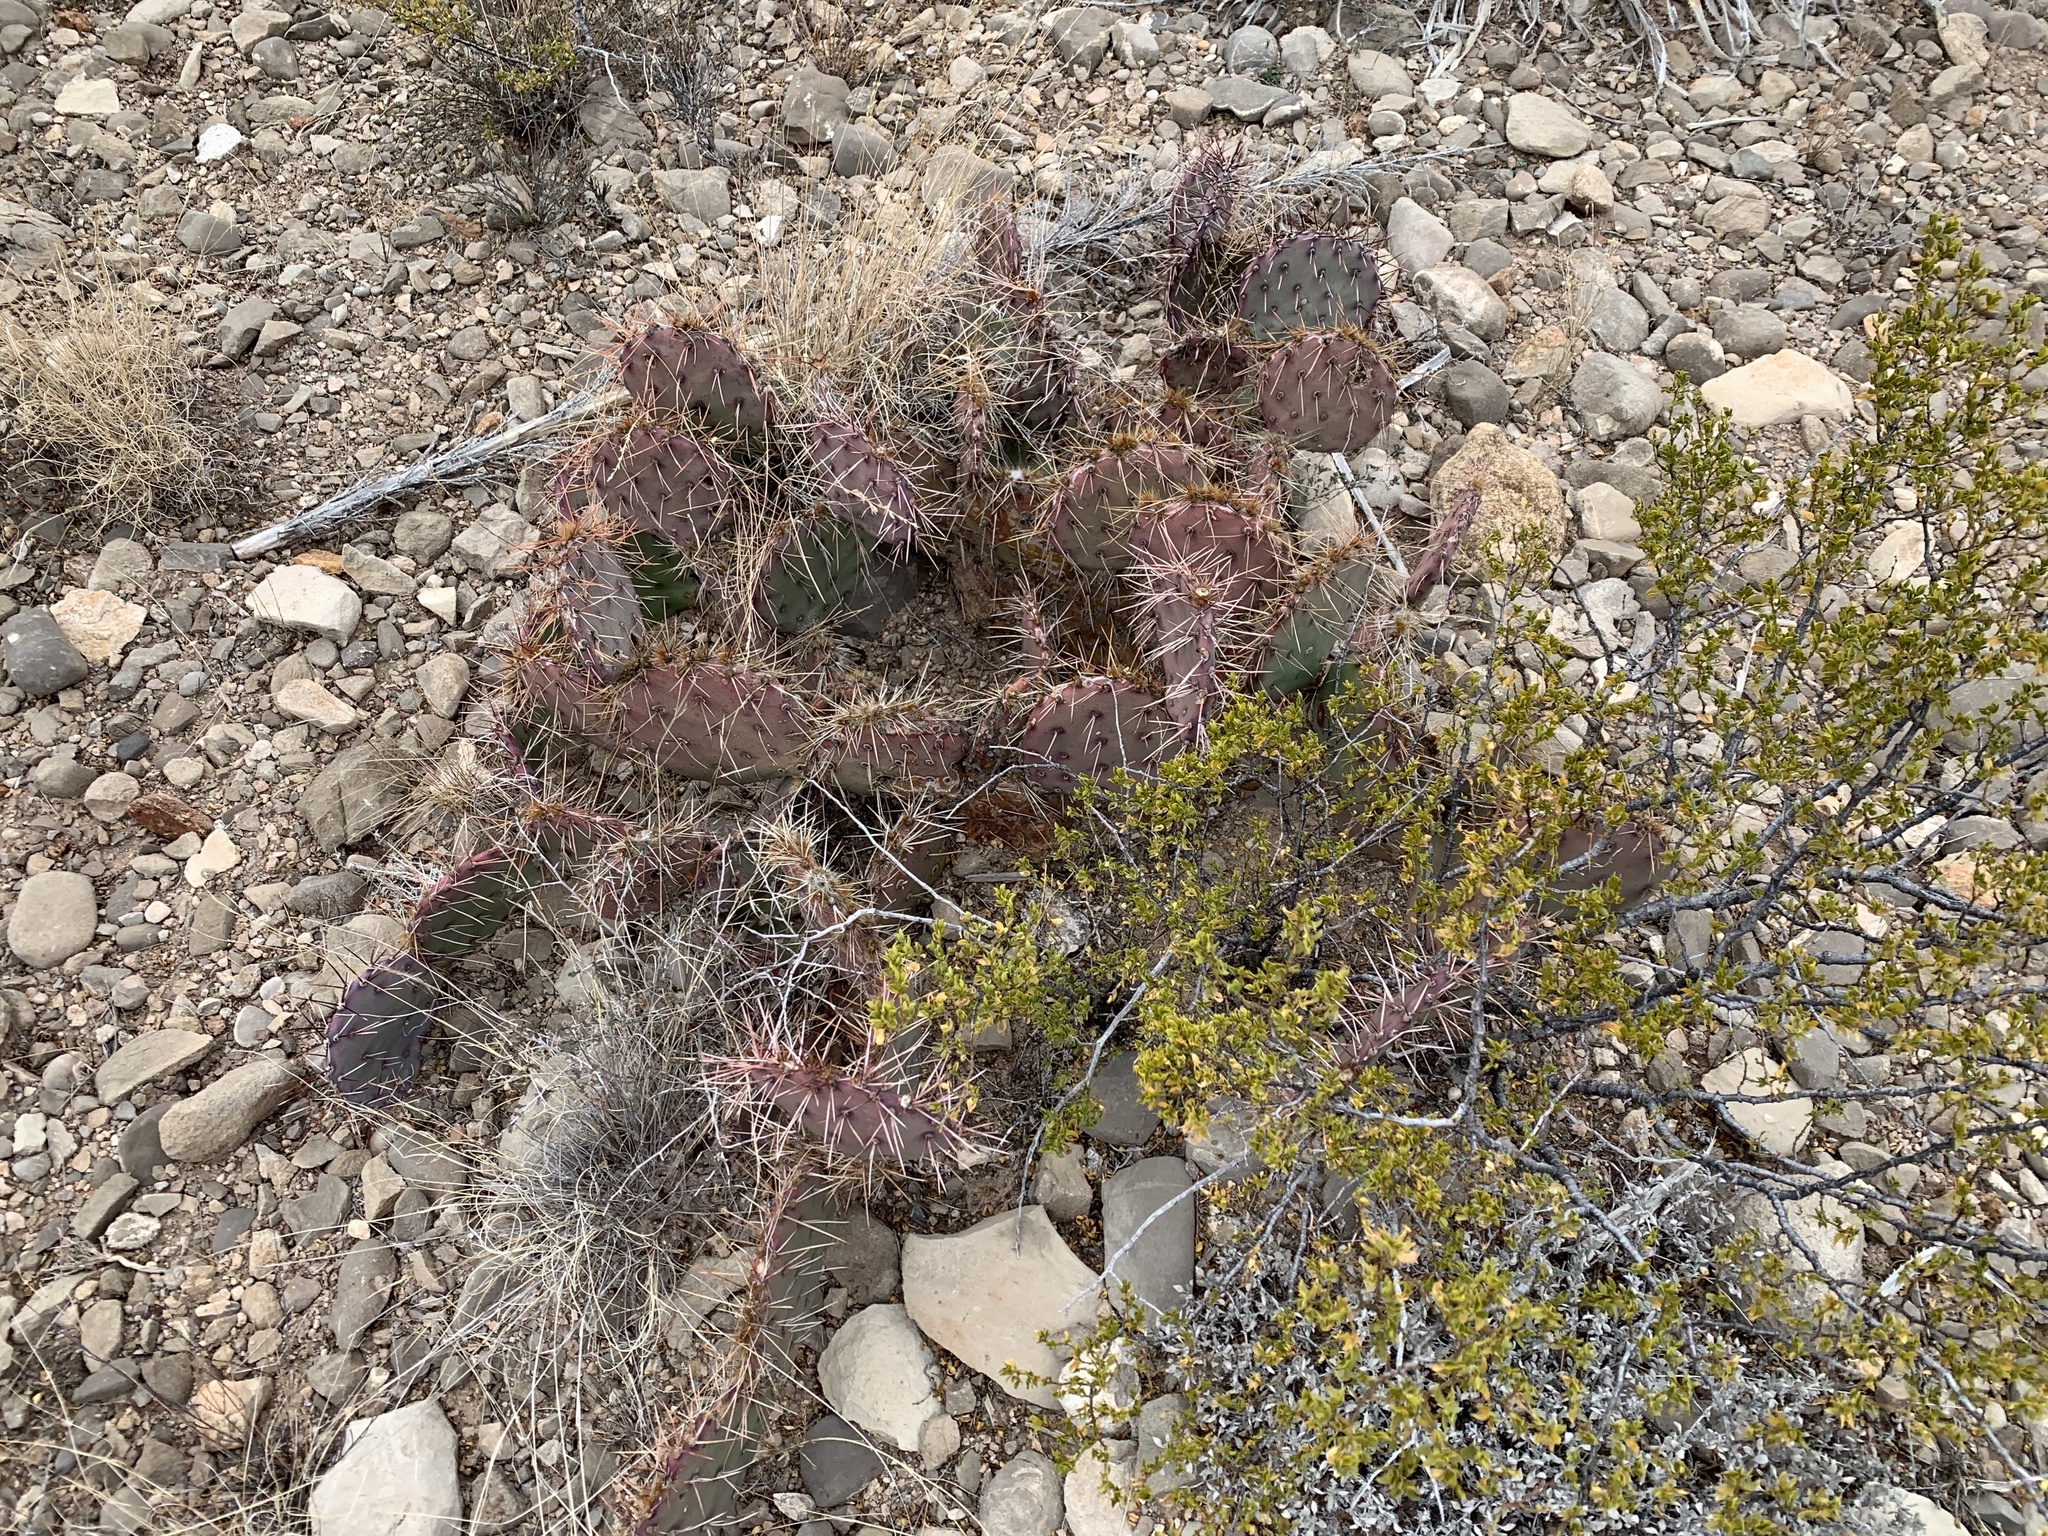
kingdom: Plantae
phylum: Tracheophyta
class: Magnoliopsida
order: Caryophyllales
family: Cactaceae
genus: Opuntia
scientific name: Opuntia macrocentra
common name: Purple prickly-pear
